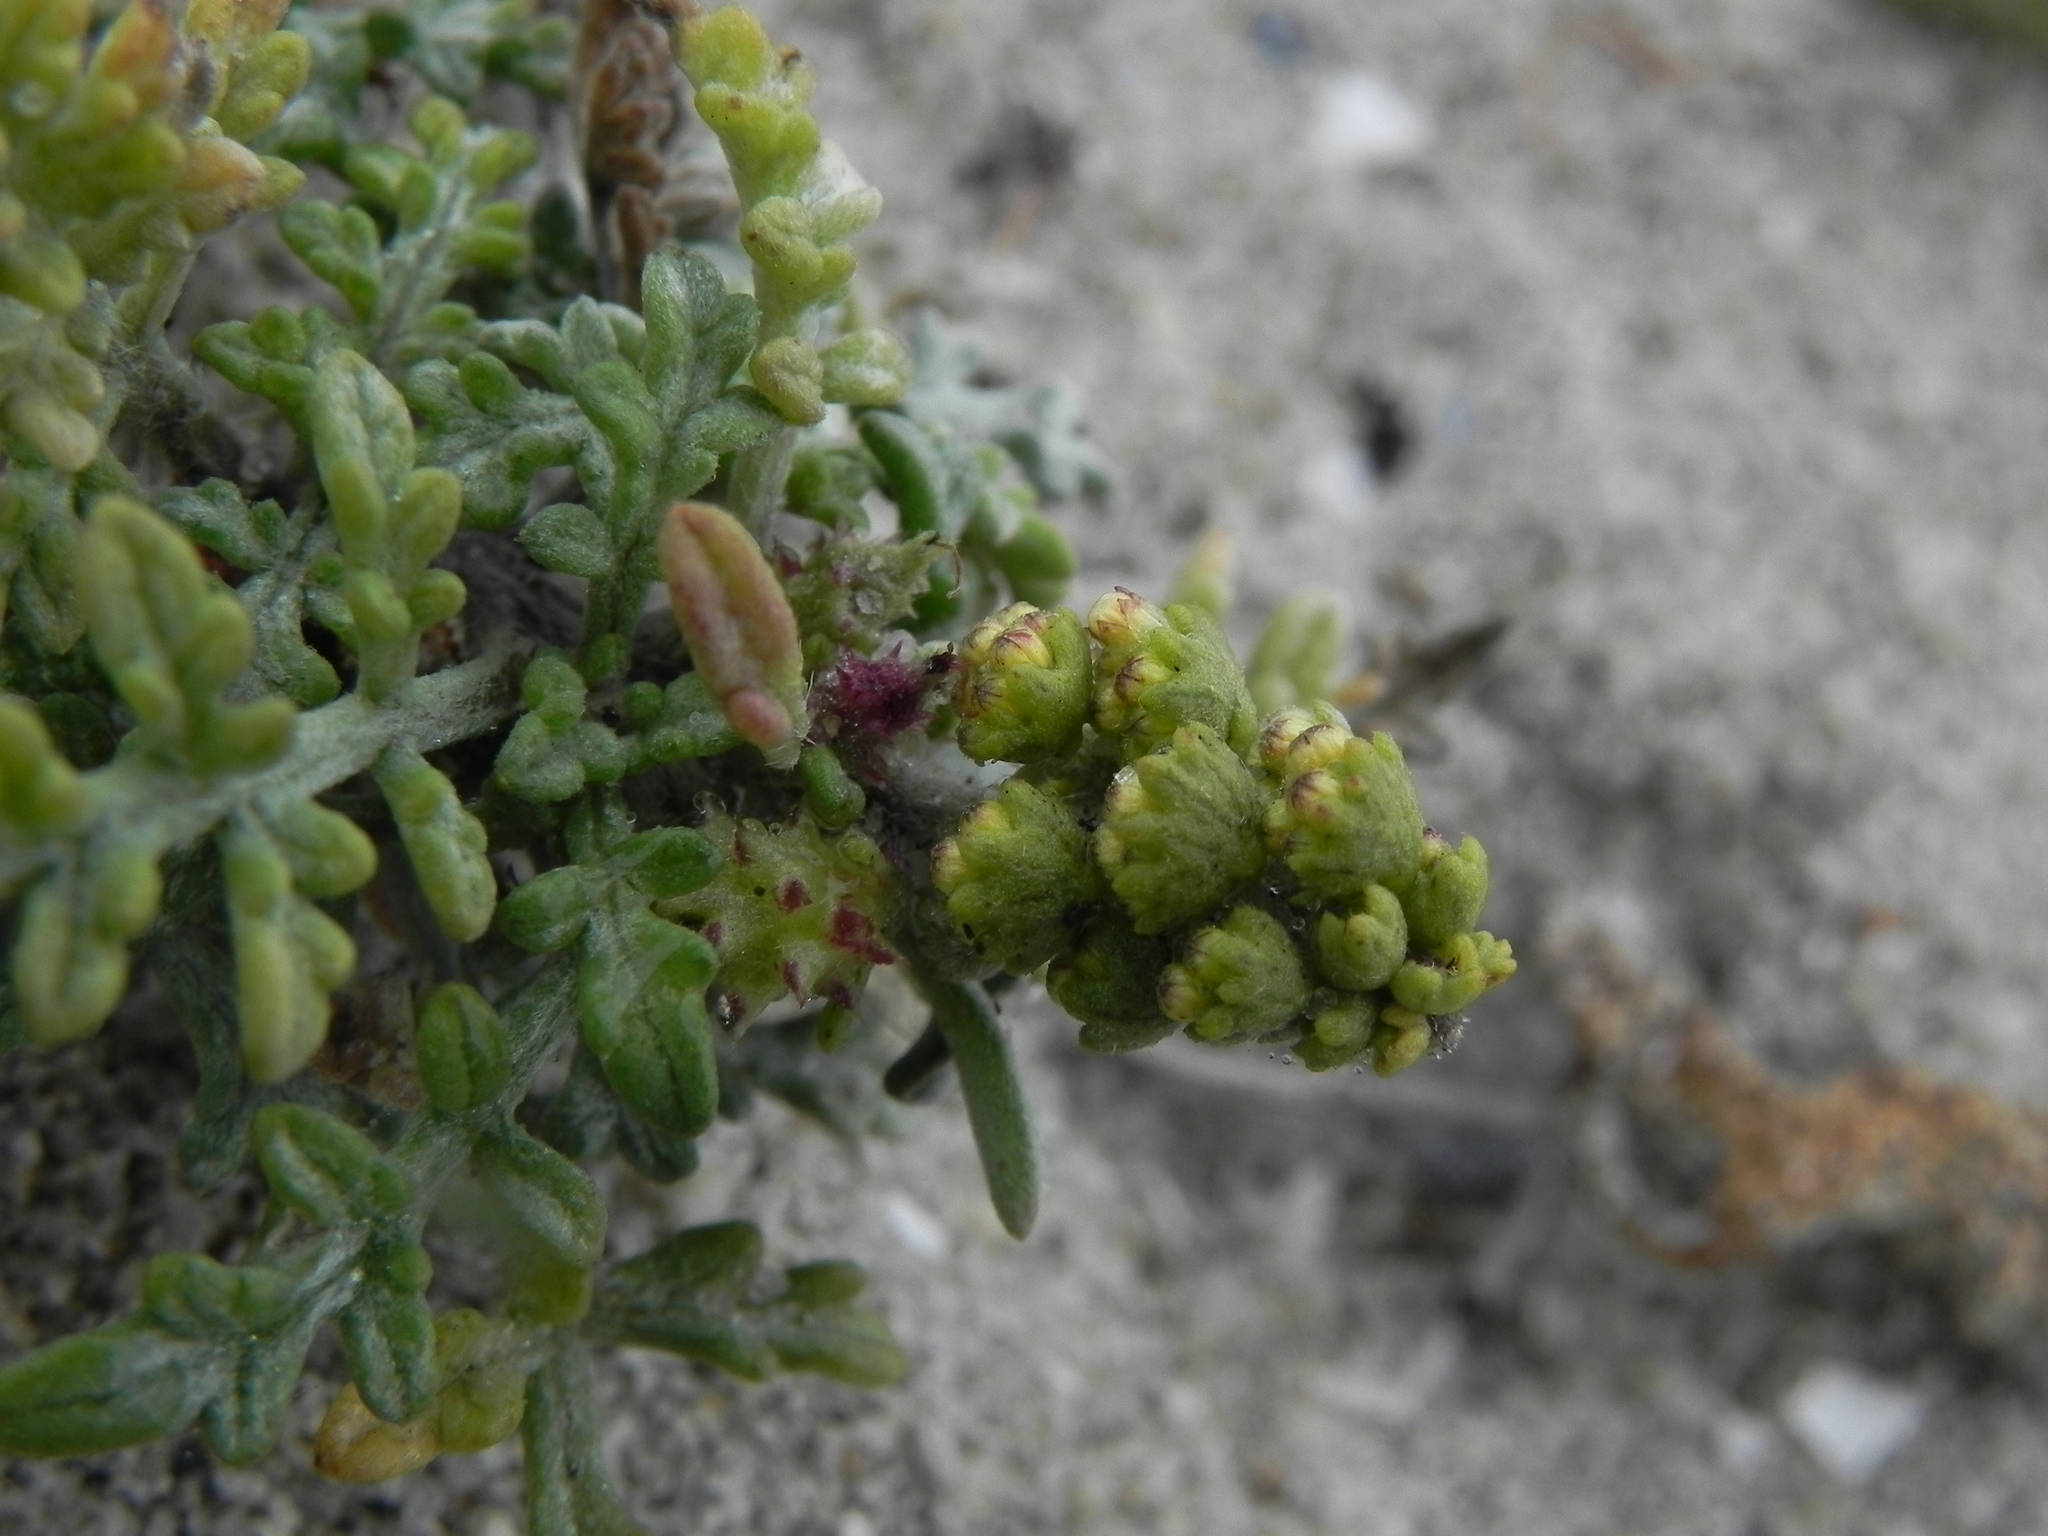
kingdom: Plantae
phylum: Tracheophyta
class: Magnoliopsida
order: Asterales
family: Asteraceae
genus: Ambrosia
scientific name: Ambrosia chamissonis
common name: Beachbur
